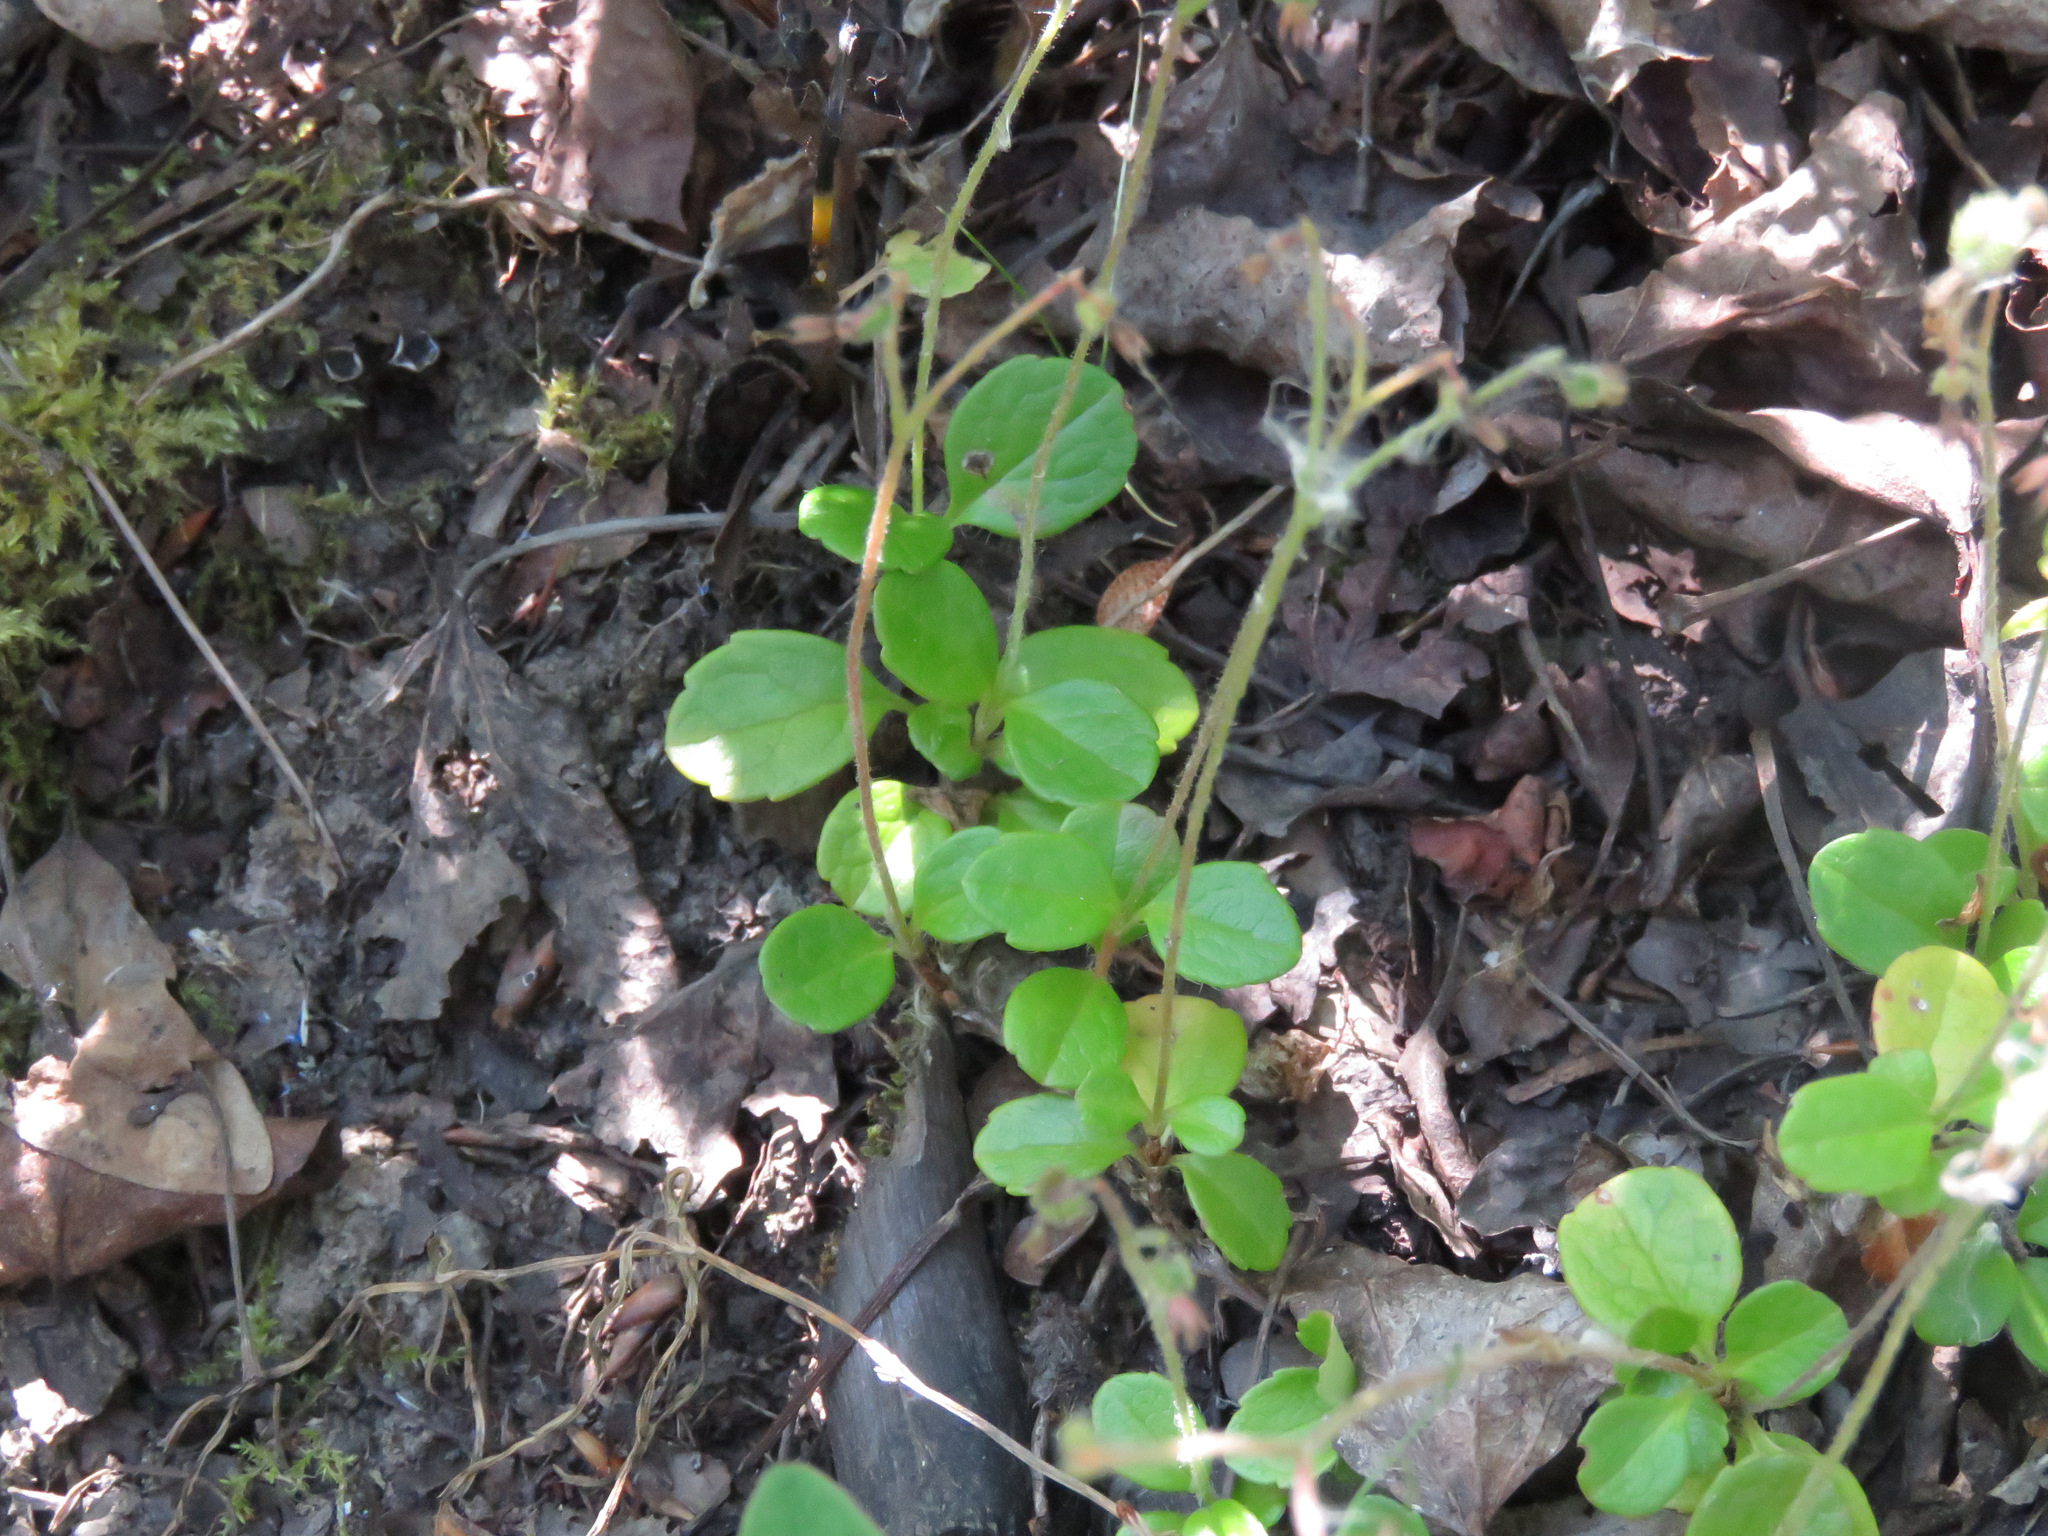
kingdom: Plantae
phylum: Tracheophyta
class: Magnoliopsida
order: Dipsacales
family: Caprifoliaceae
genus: Linnaea
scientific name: Linnaea borealis
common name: Twinflower
